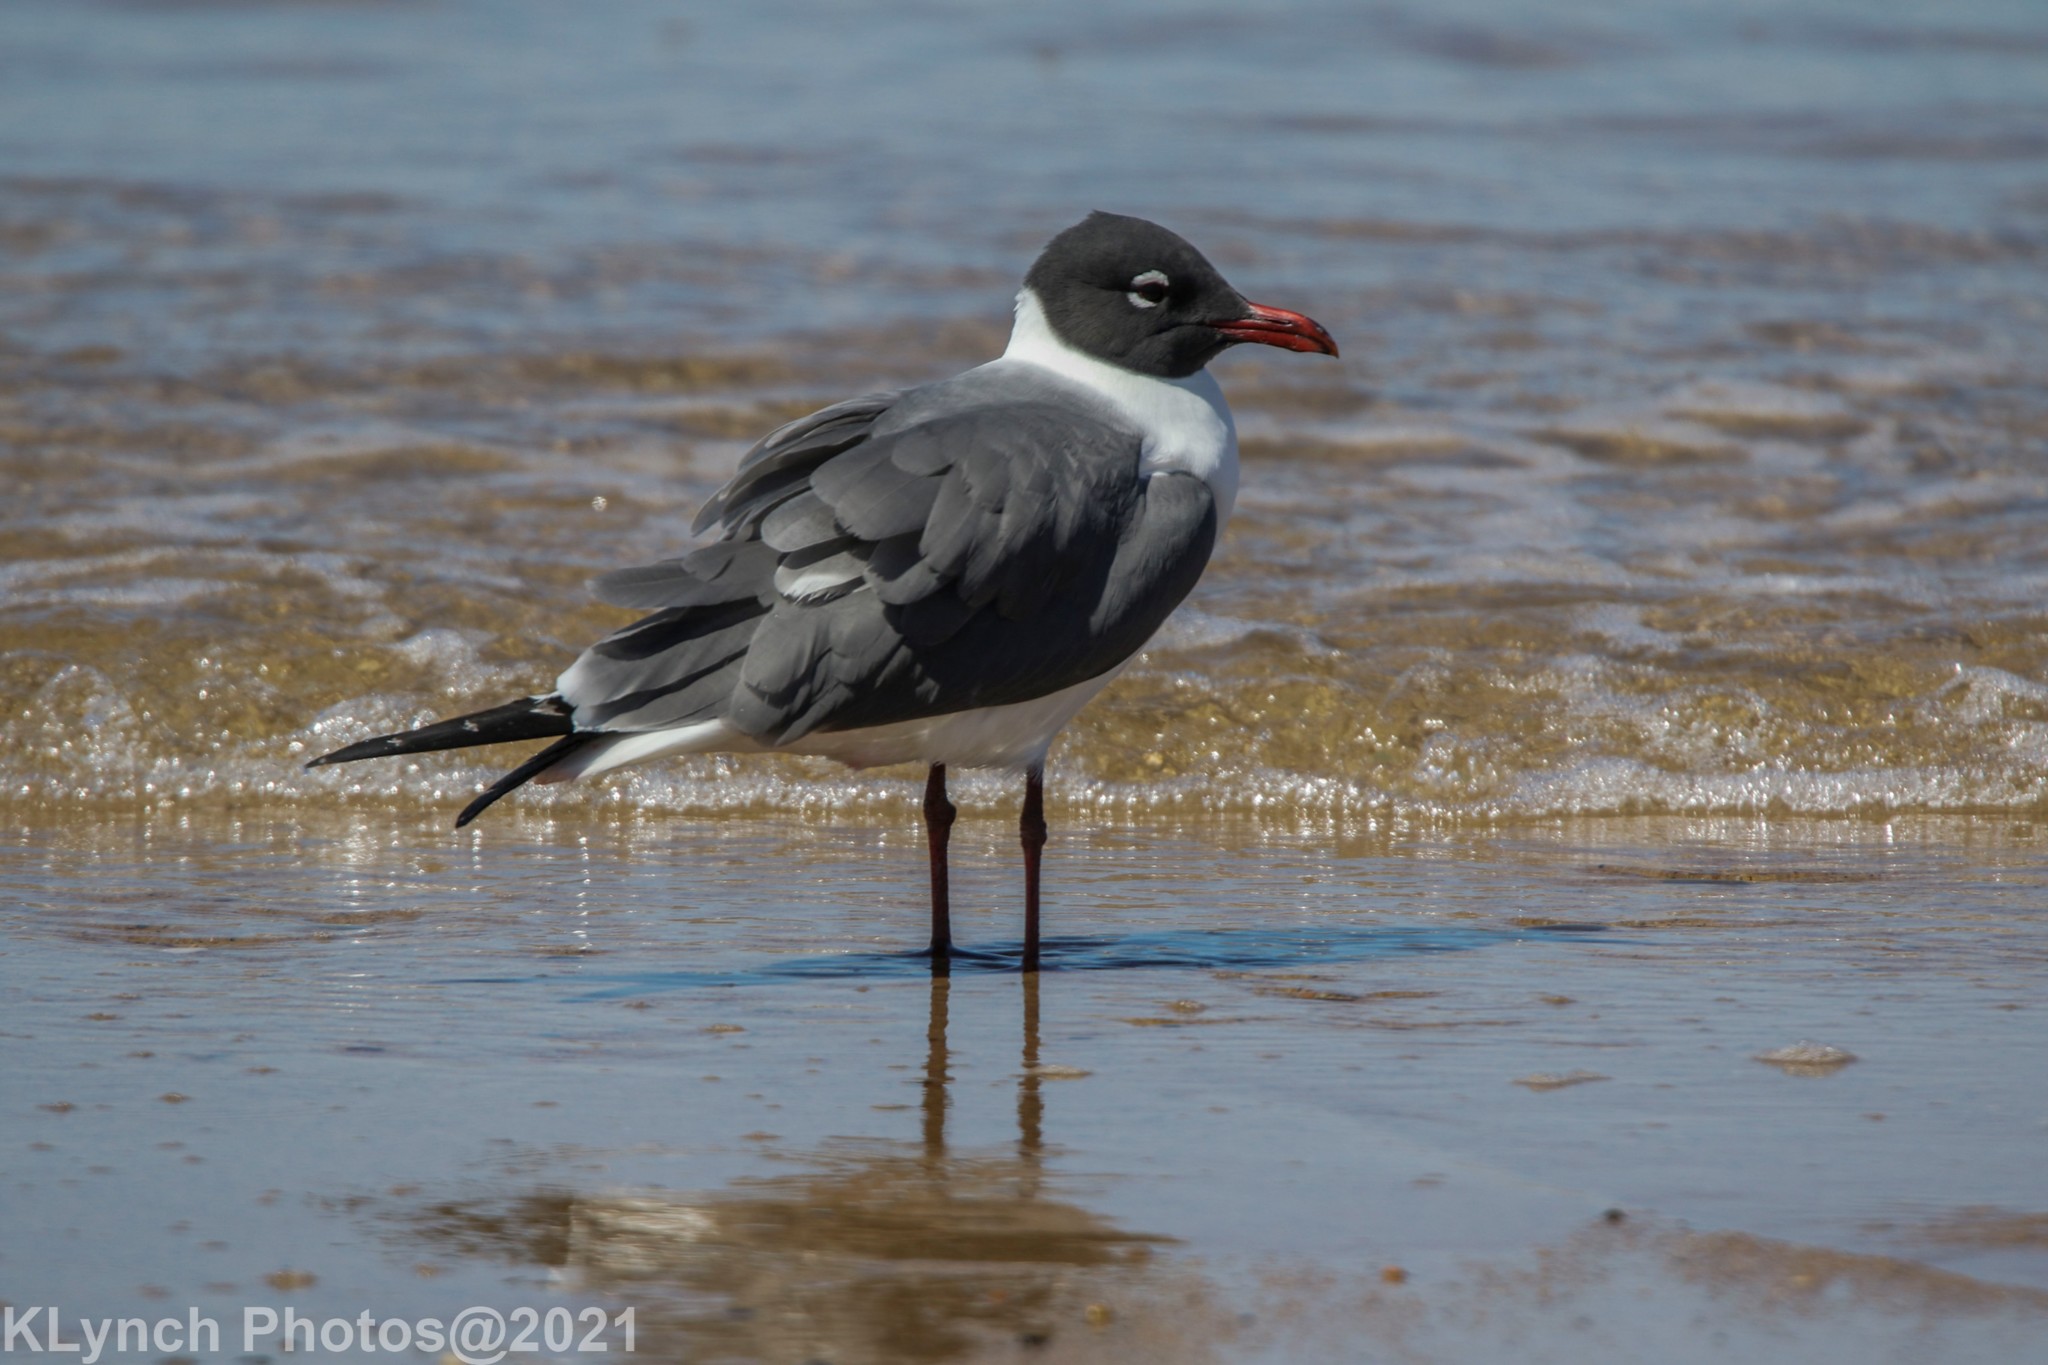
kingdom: Animalia
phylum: Chordata
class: Aves
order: Charadriiformes
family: Laridae
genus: Leucophaeus
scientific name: Leucophaeus atricilla
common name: Laughing gull
